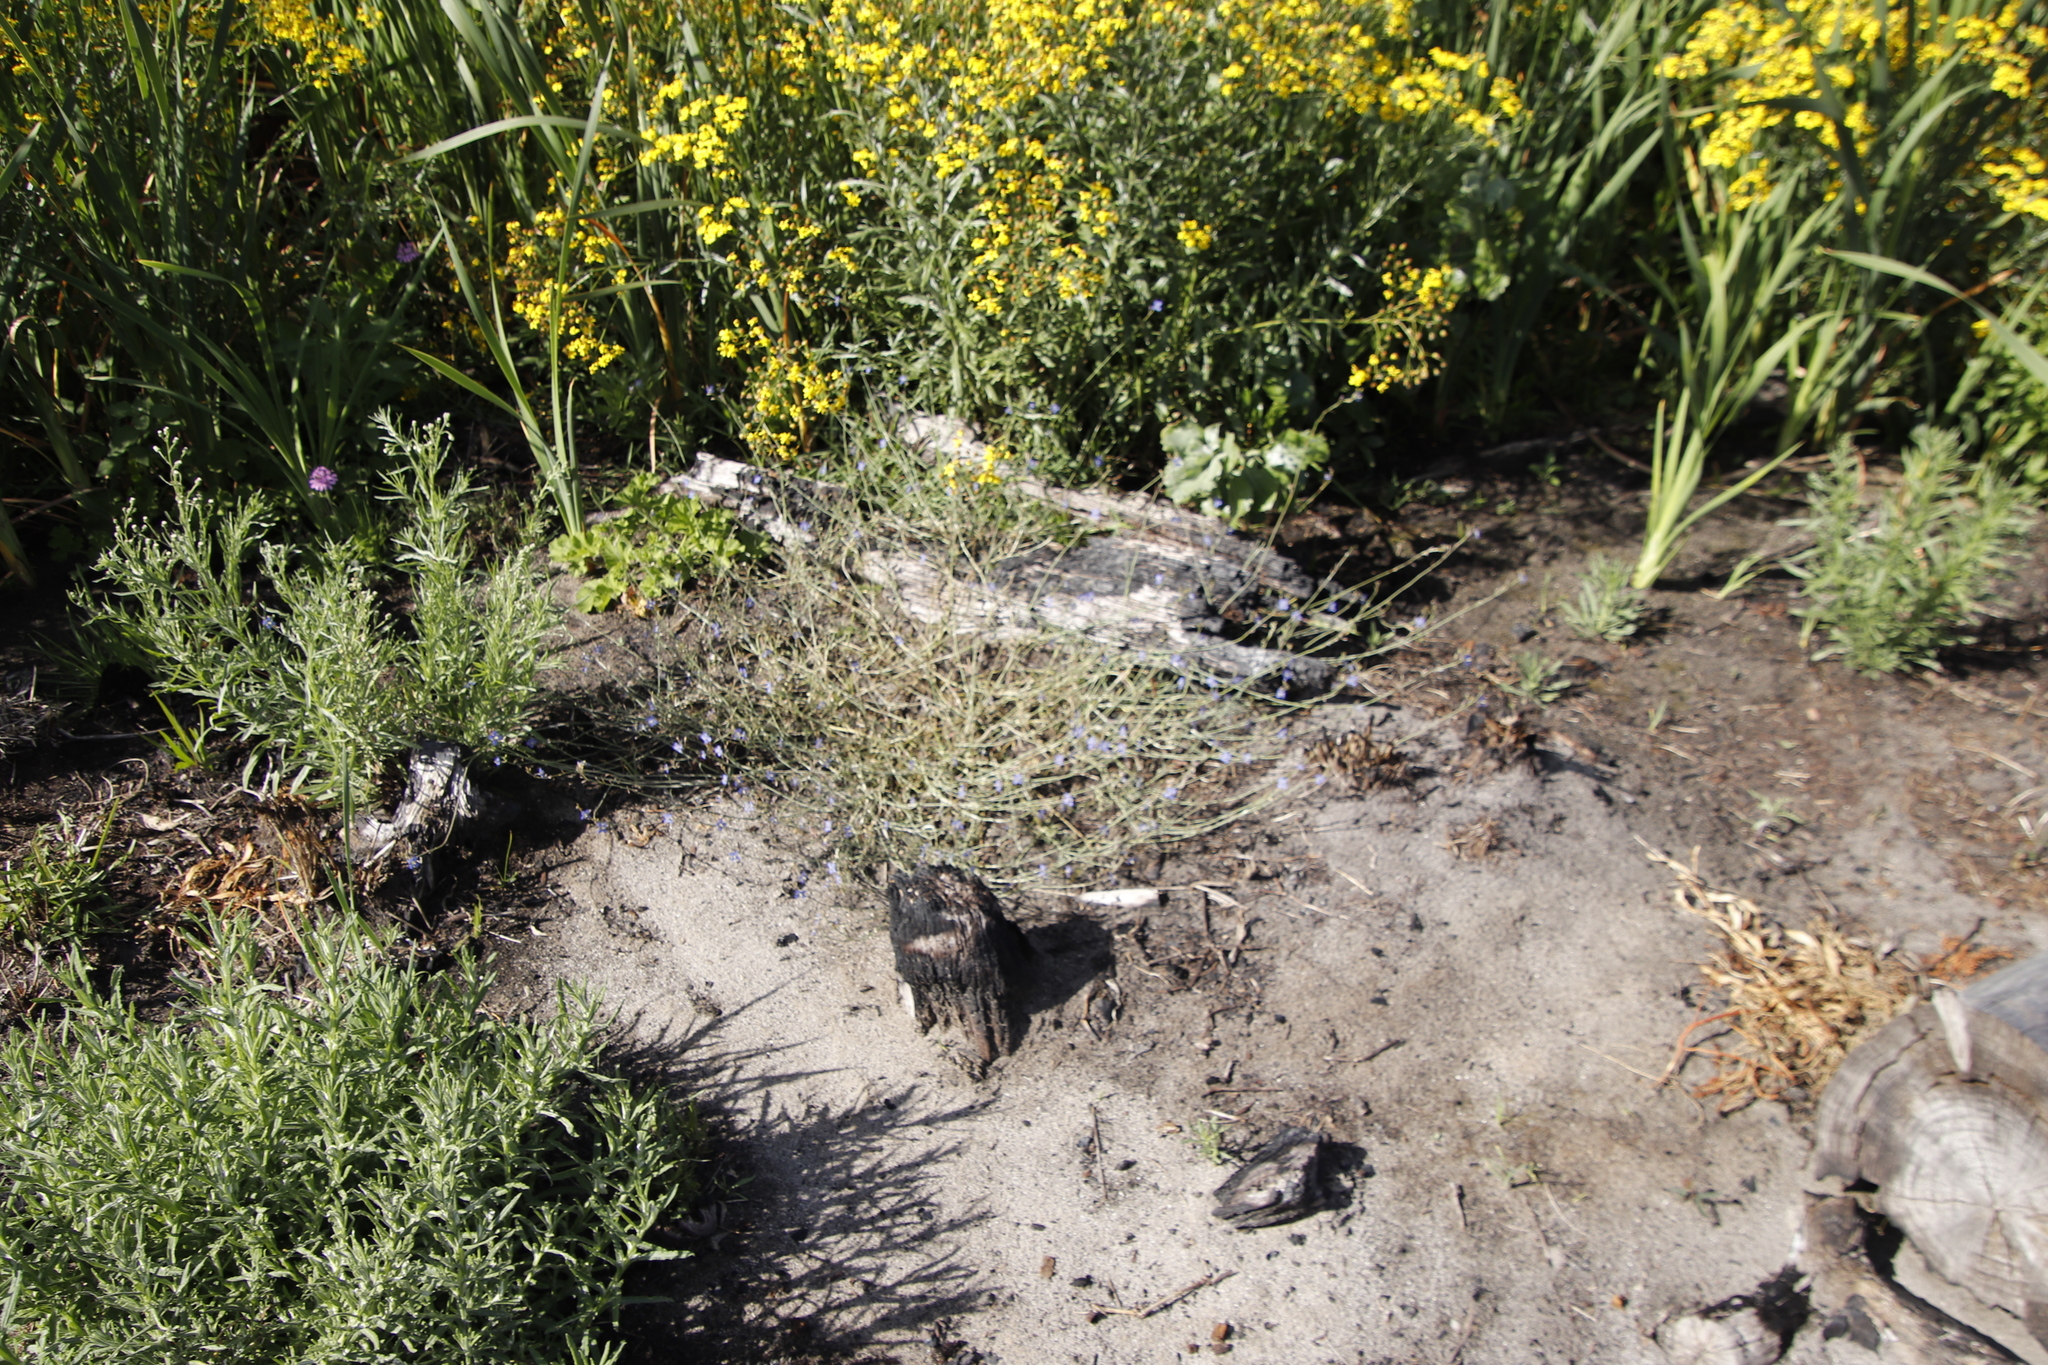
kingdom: Plantae
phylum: Tracheophyta
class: Magnoliopsida
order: Brassicales
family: Brassicaceae
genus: Heliophila
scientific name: Heliophila africana
